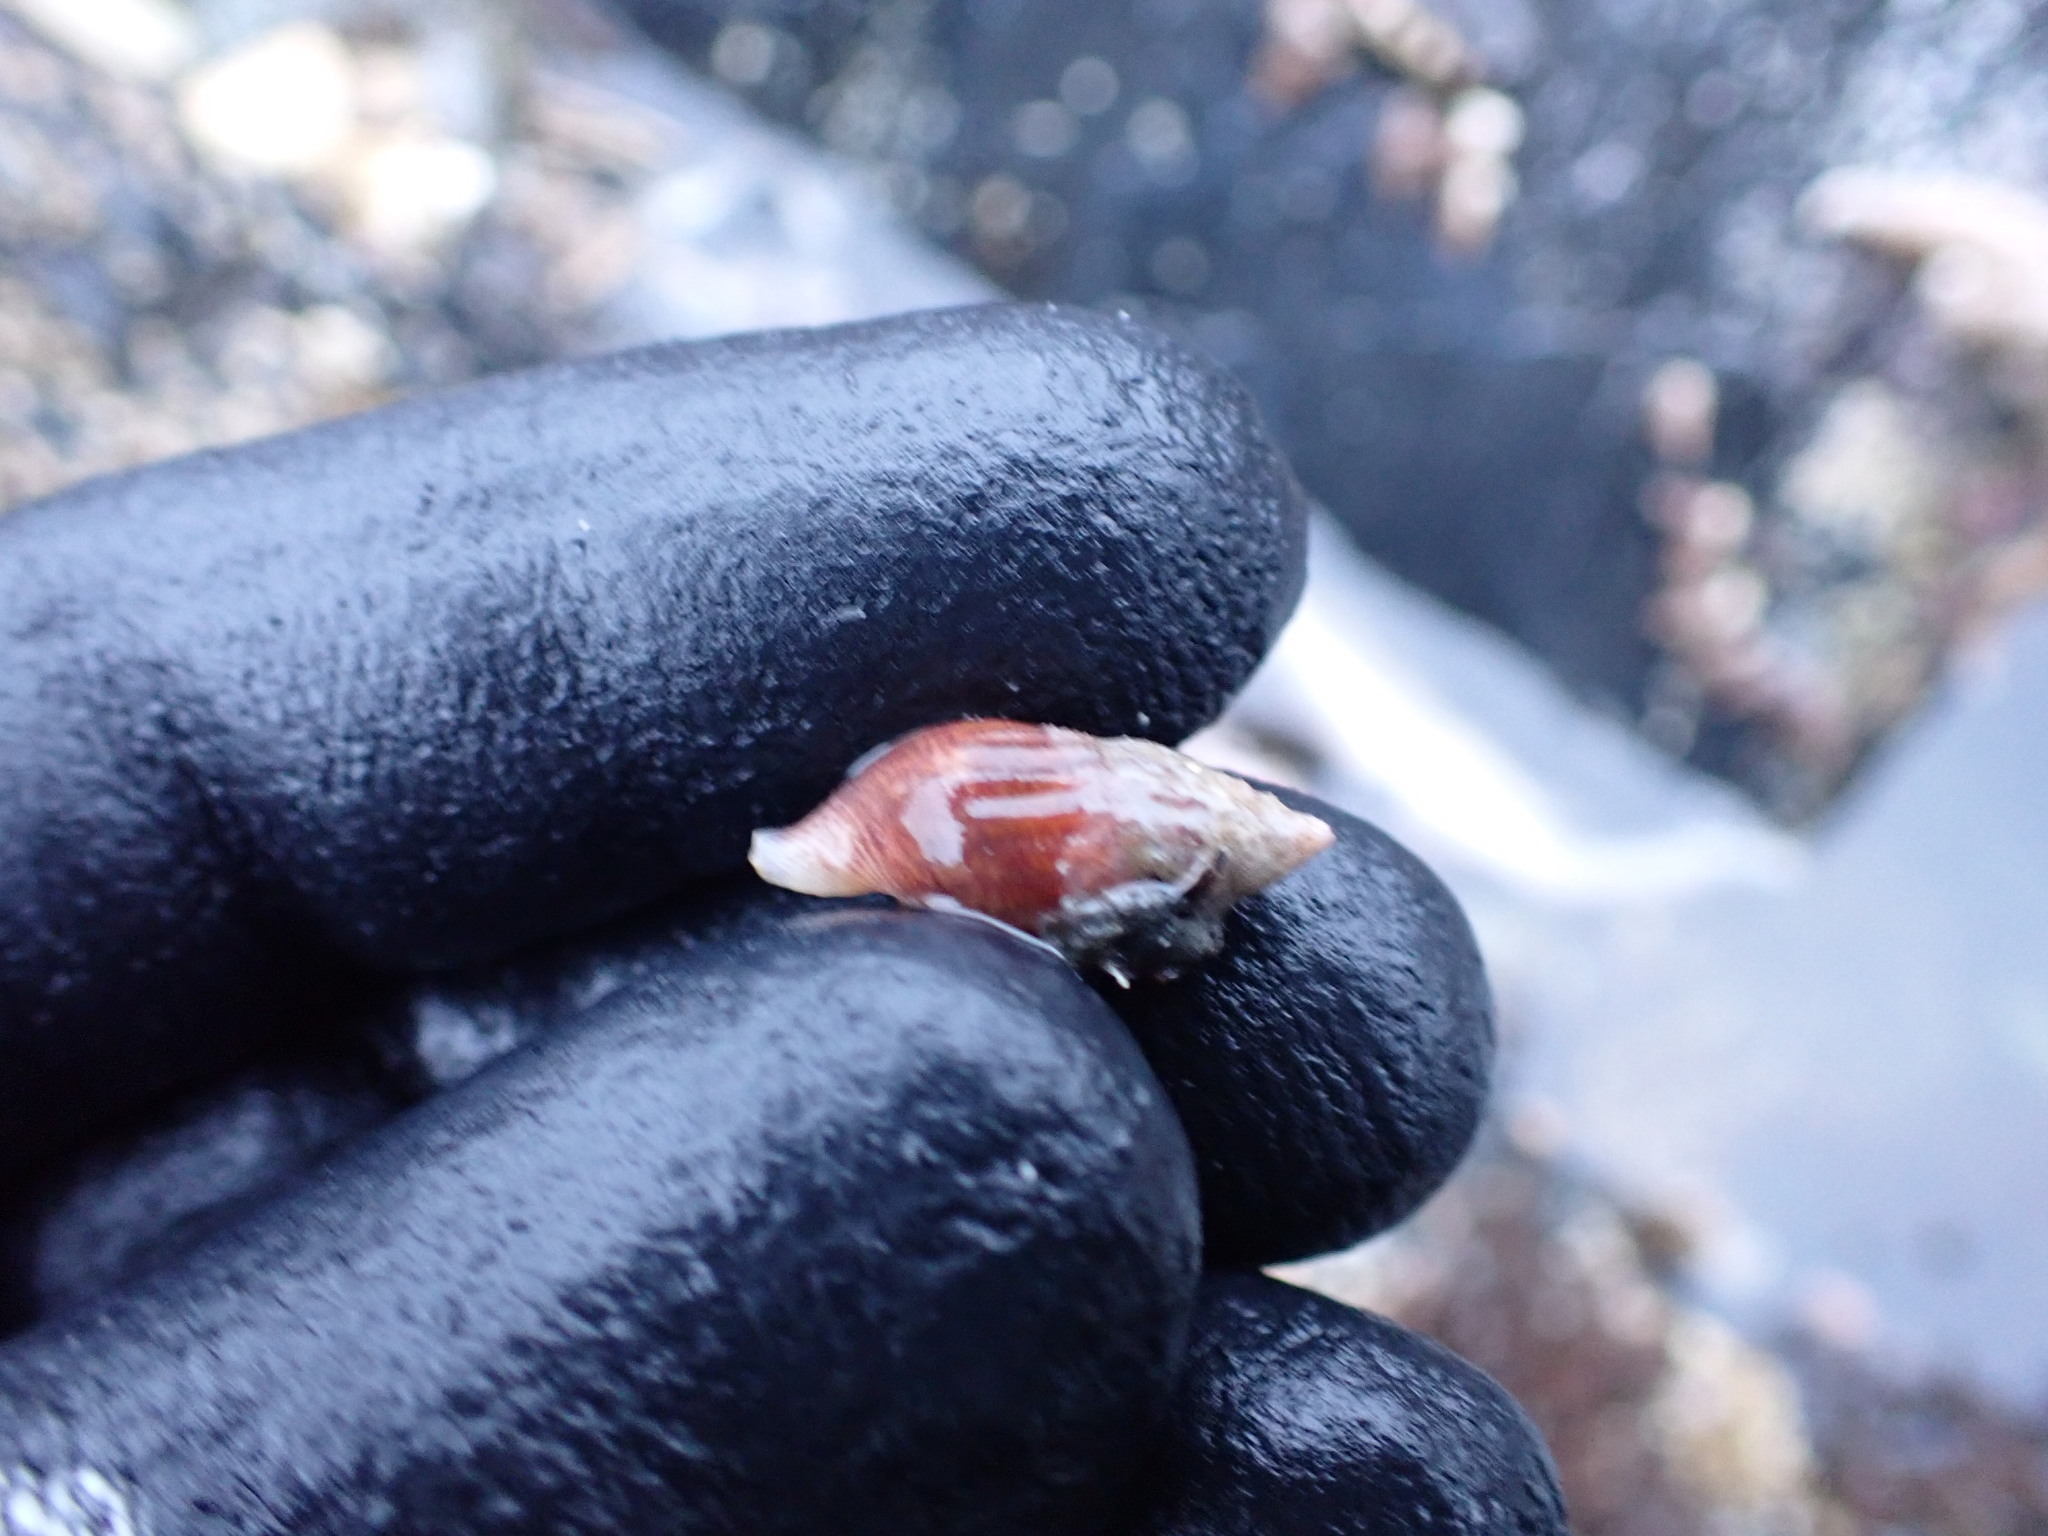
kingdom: Animalia
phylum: Mollusca
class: Gastropoda
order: Neogastropoda
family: Columbellidae
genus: Amphissa
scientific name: Amphissa columbiana
